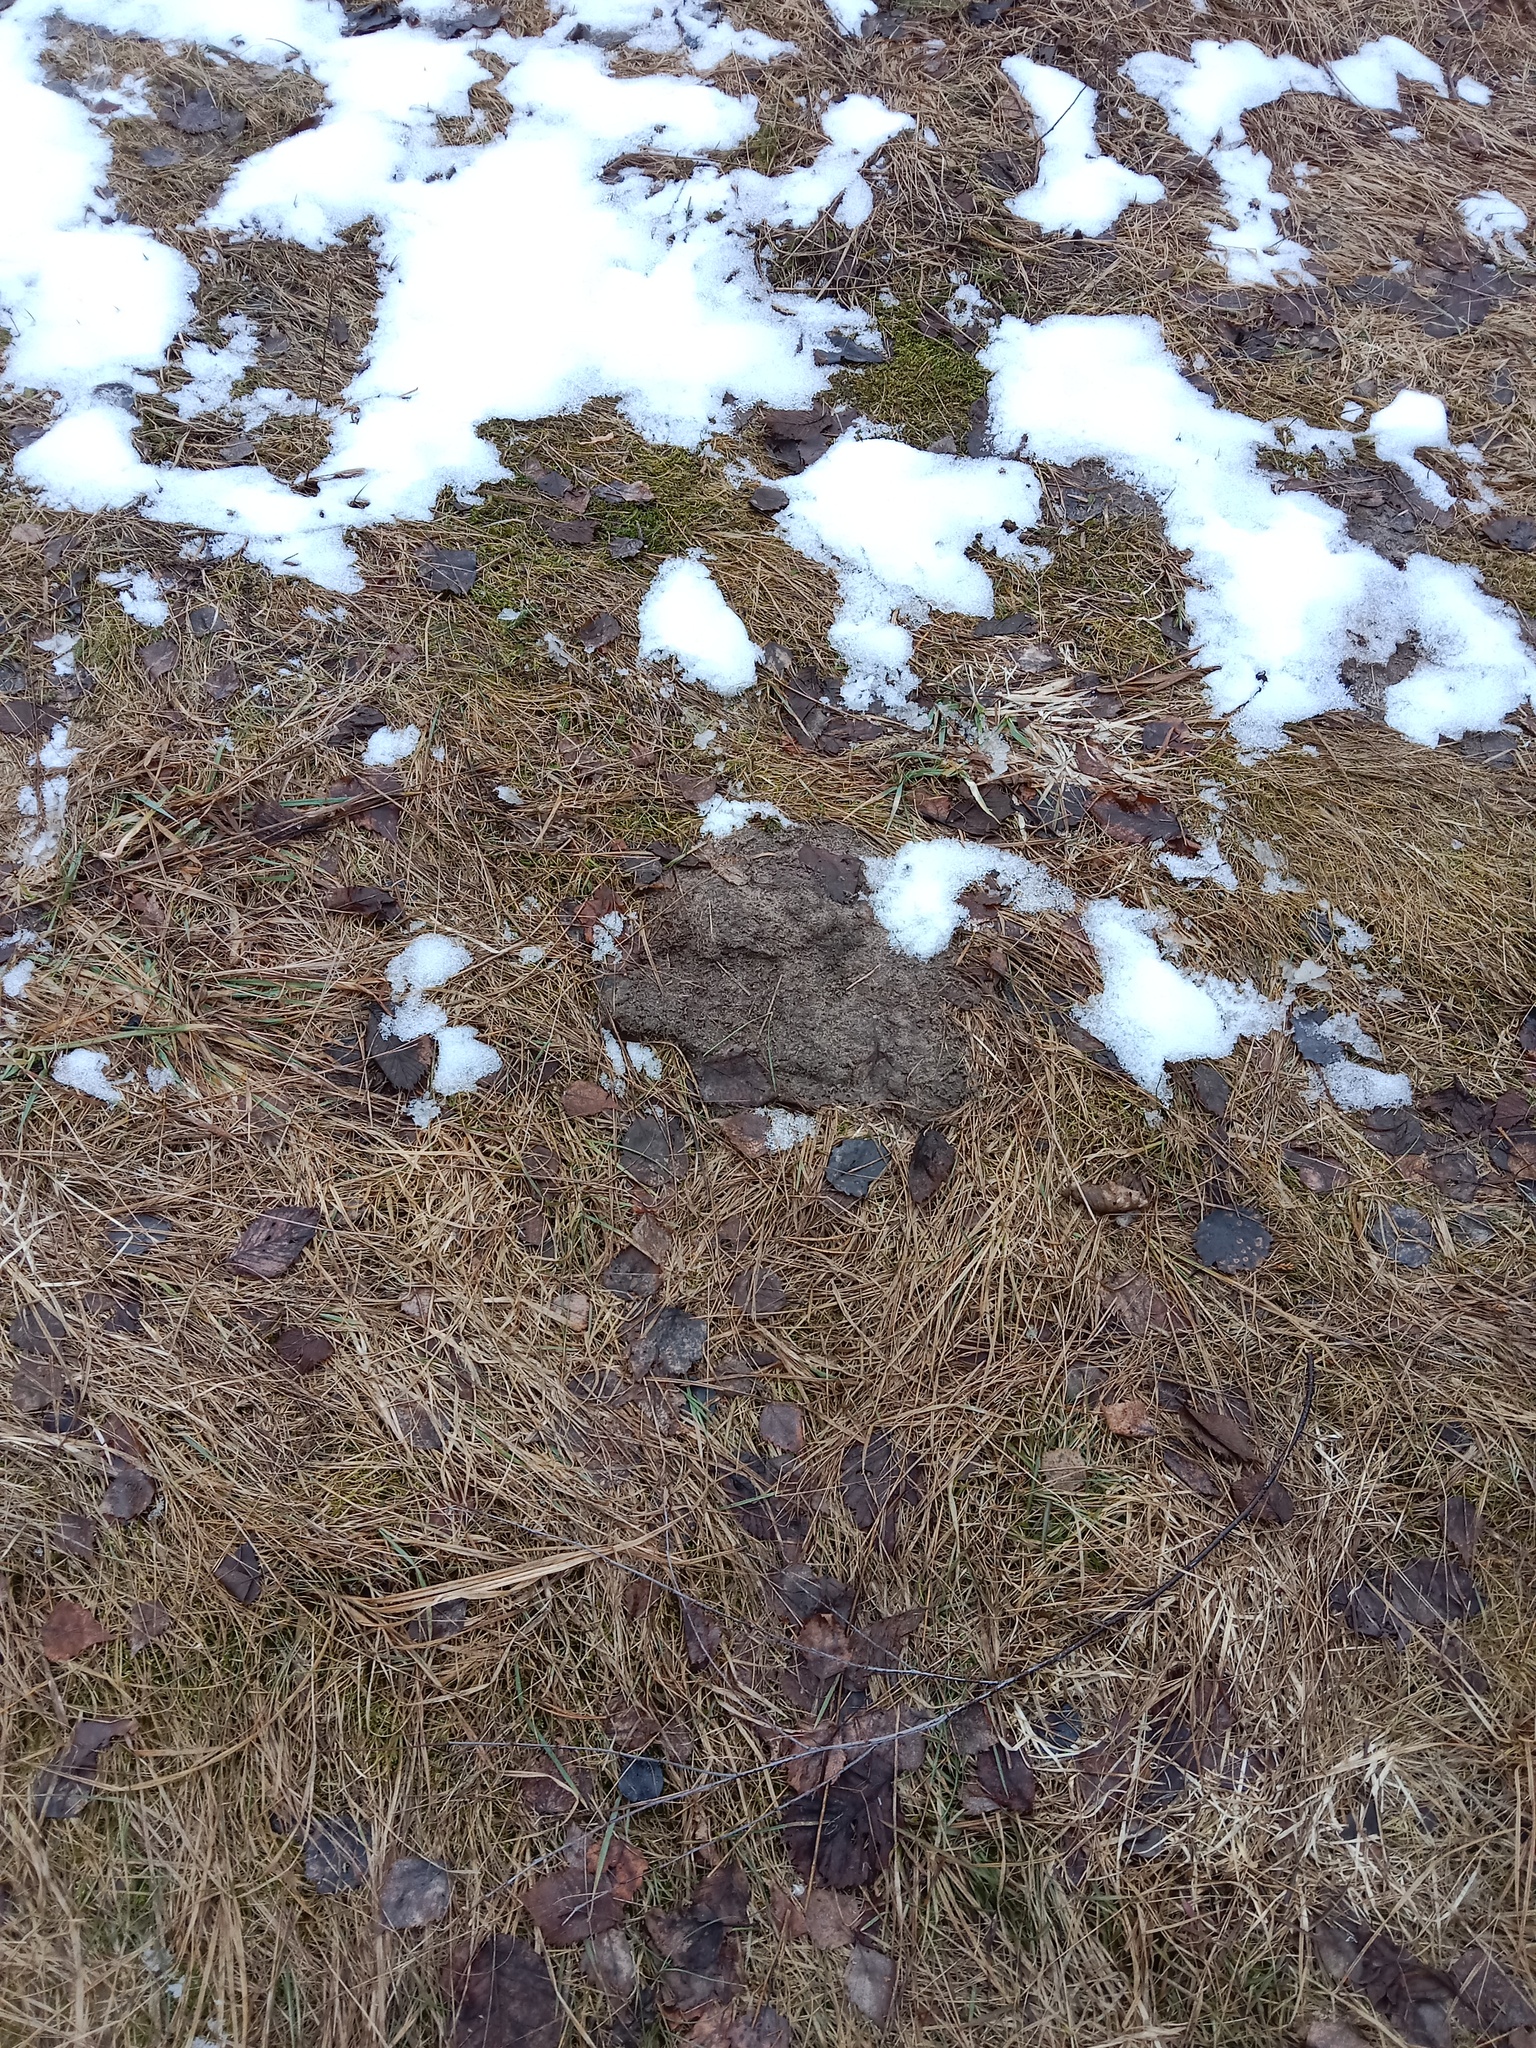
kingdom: Animalia
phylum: Chordata
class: Mammalia
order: Soricomorpha
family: Talpidae
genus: Talpa
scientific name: Talpa europaea
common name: European mole
